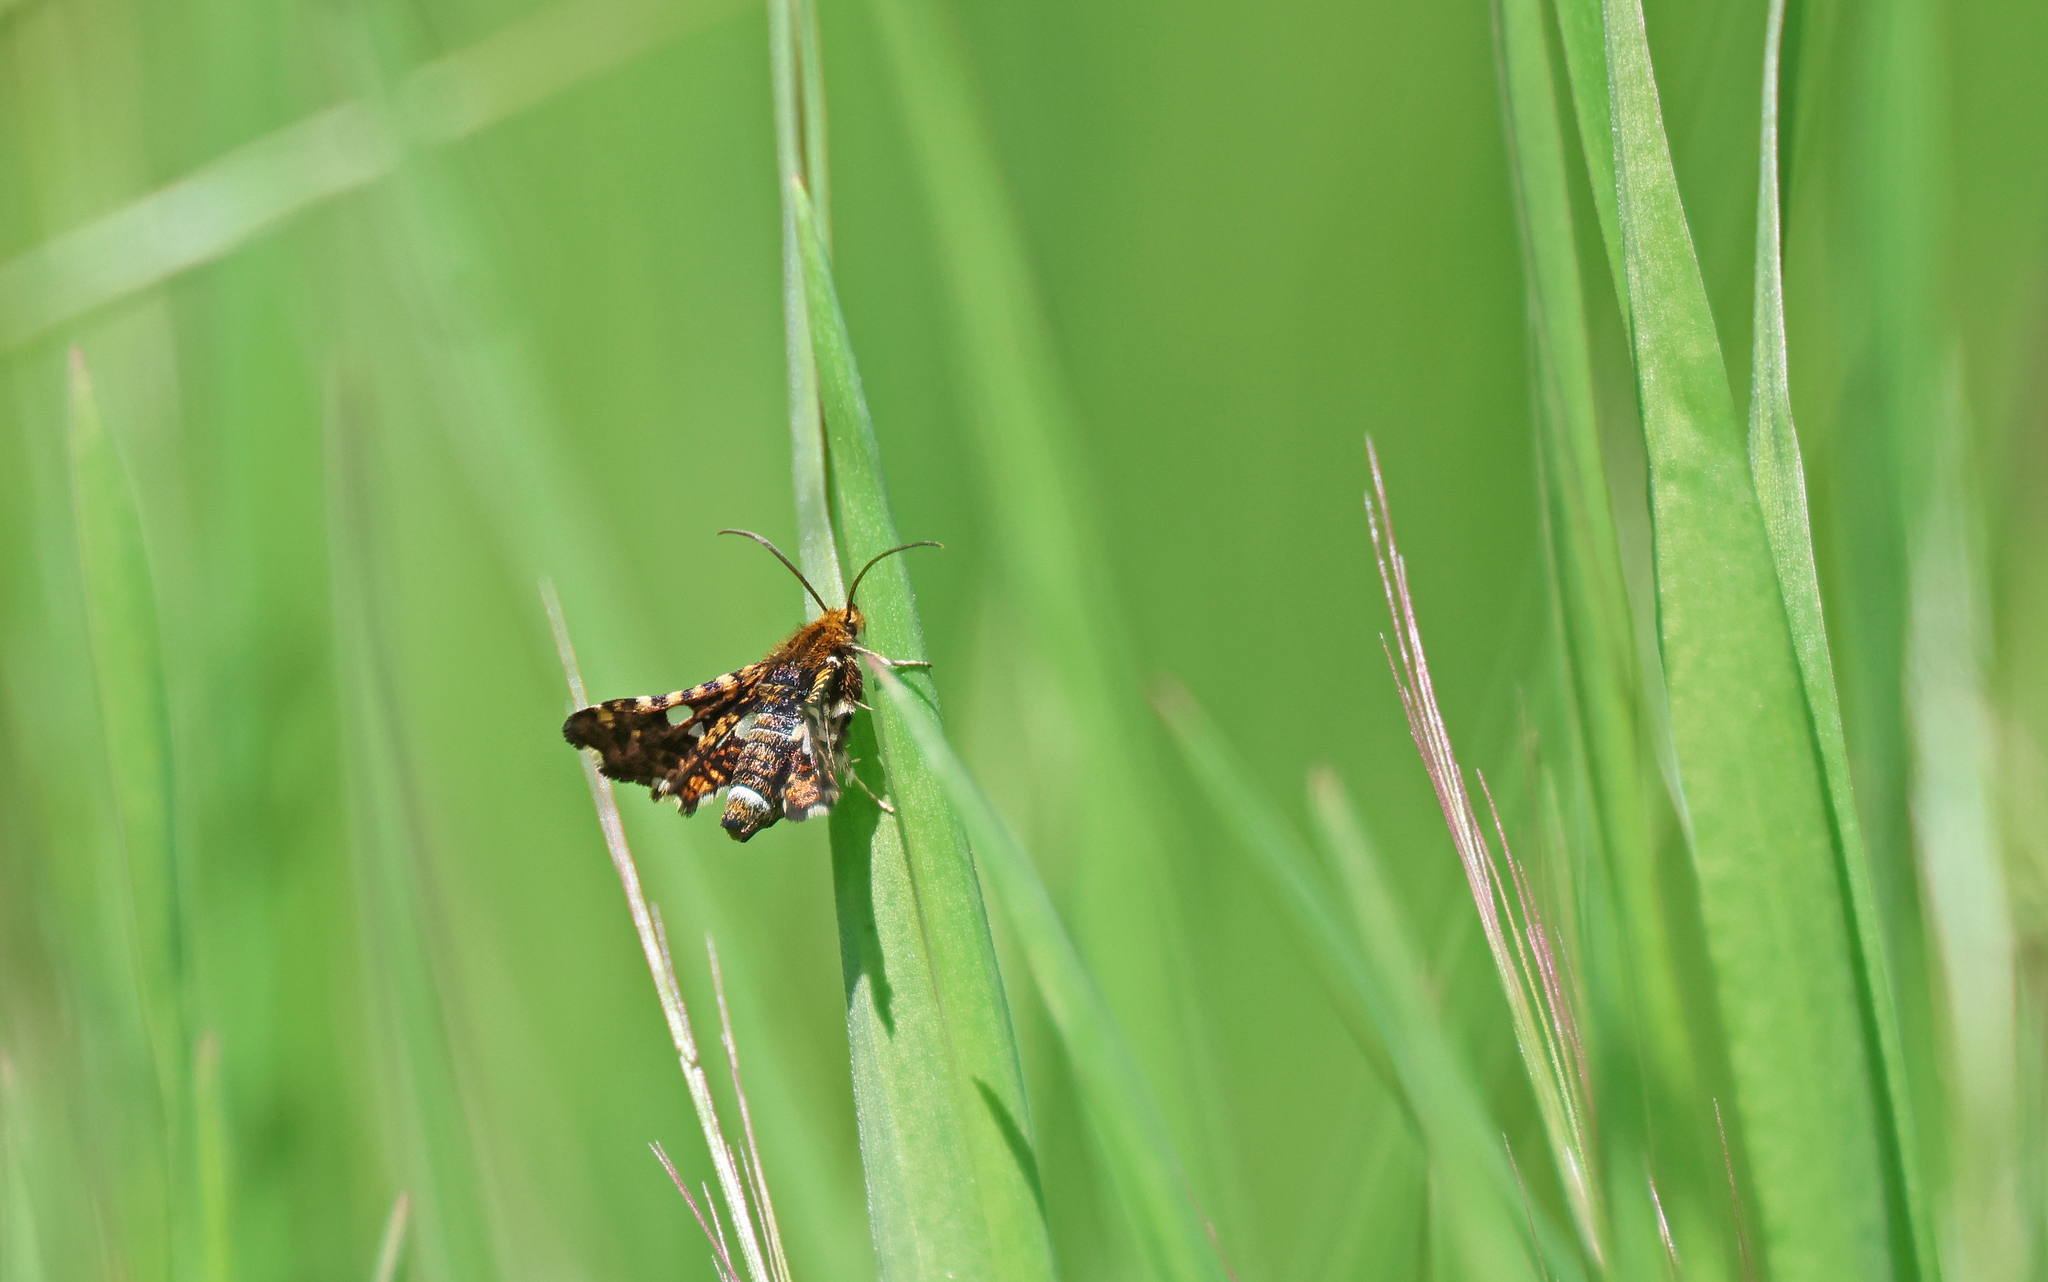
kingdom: Animalia
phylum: Arthropoda
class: Insecta
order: Lepidoptera
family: Thyrididae
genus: Thyris
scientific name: Thyris fenestrella
